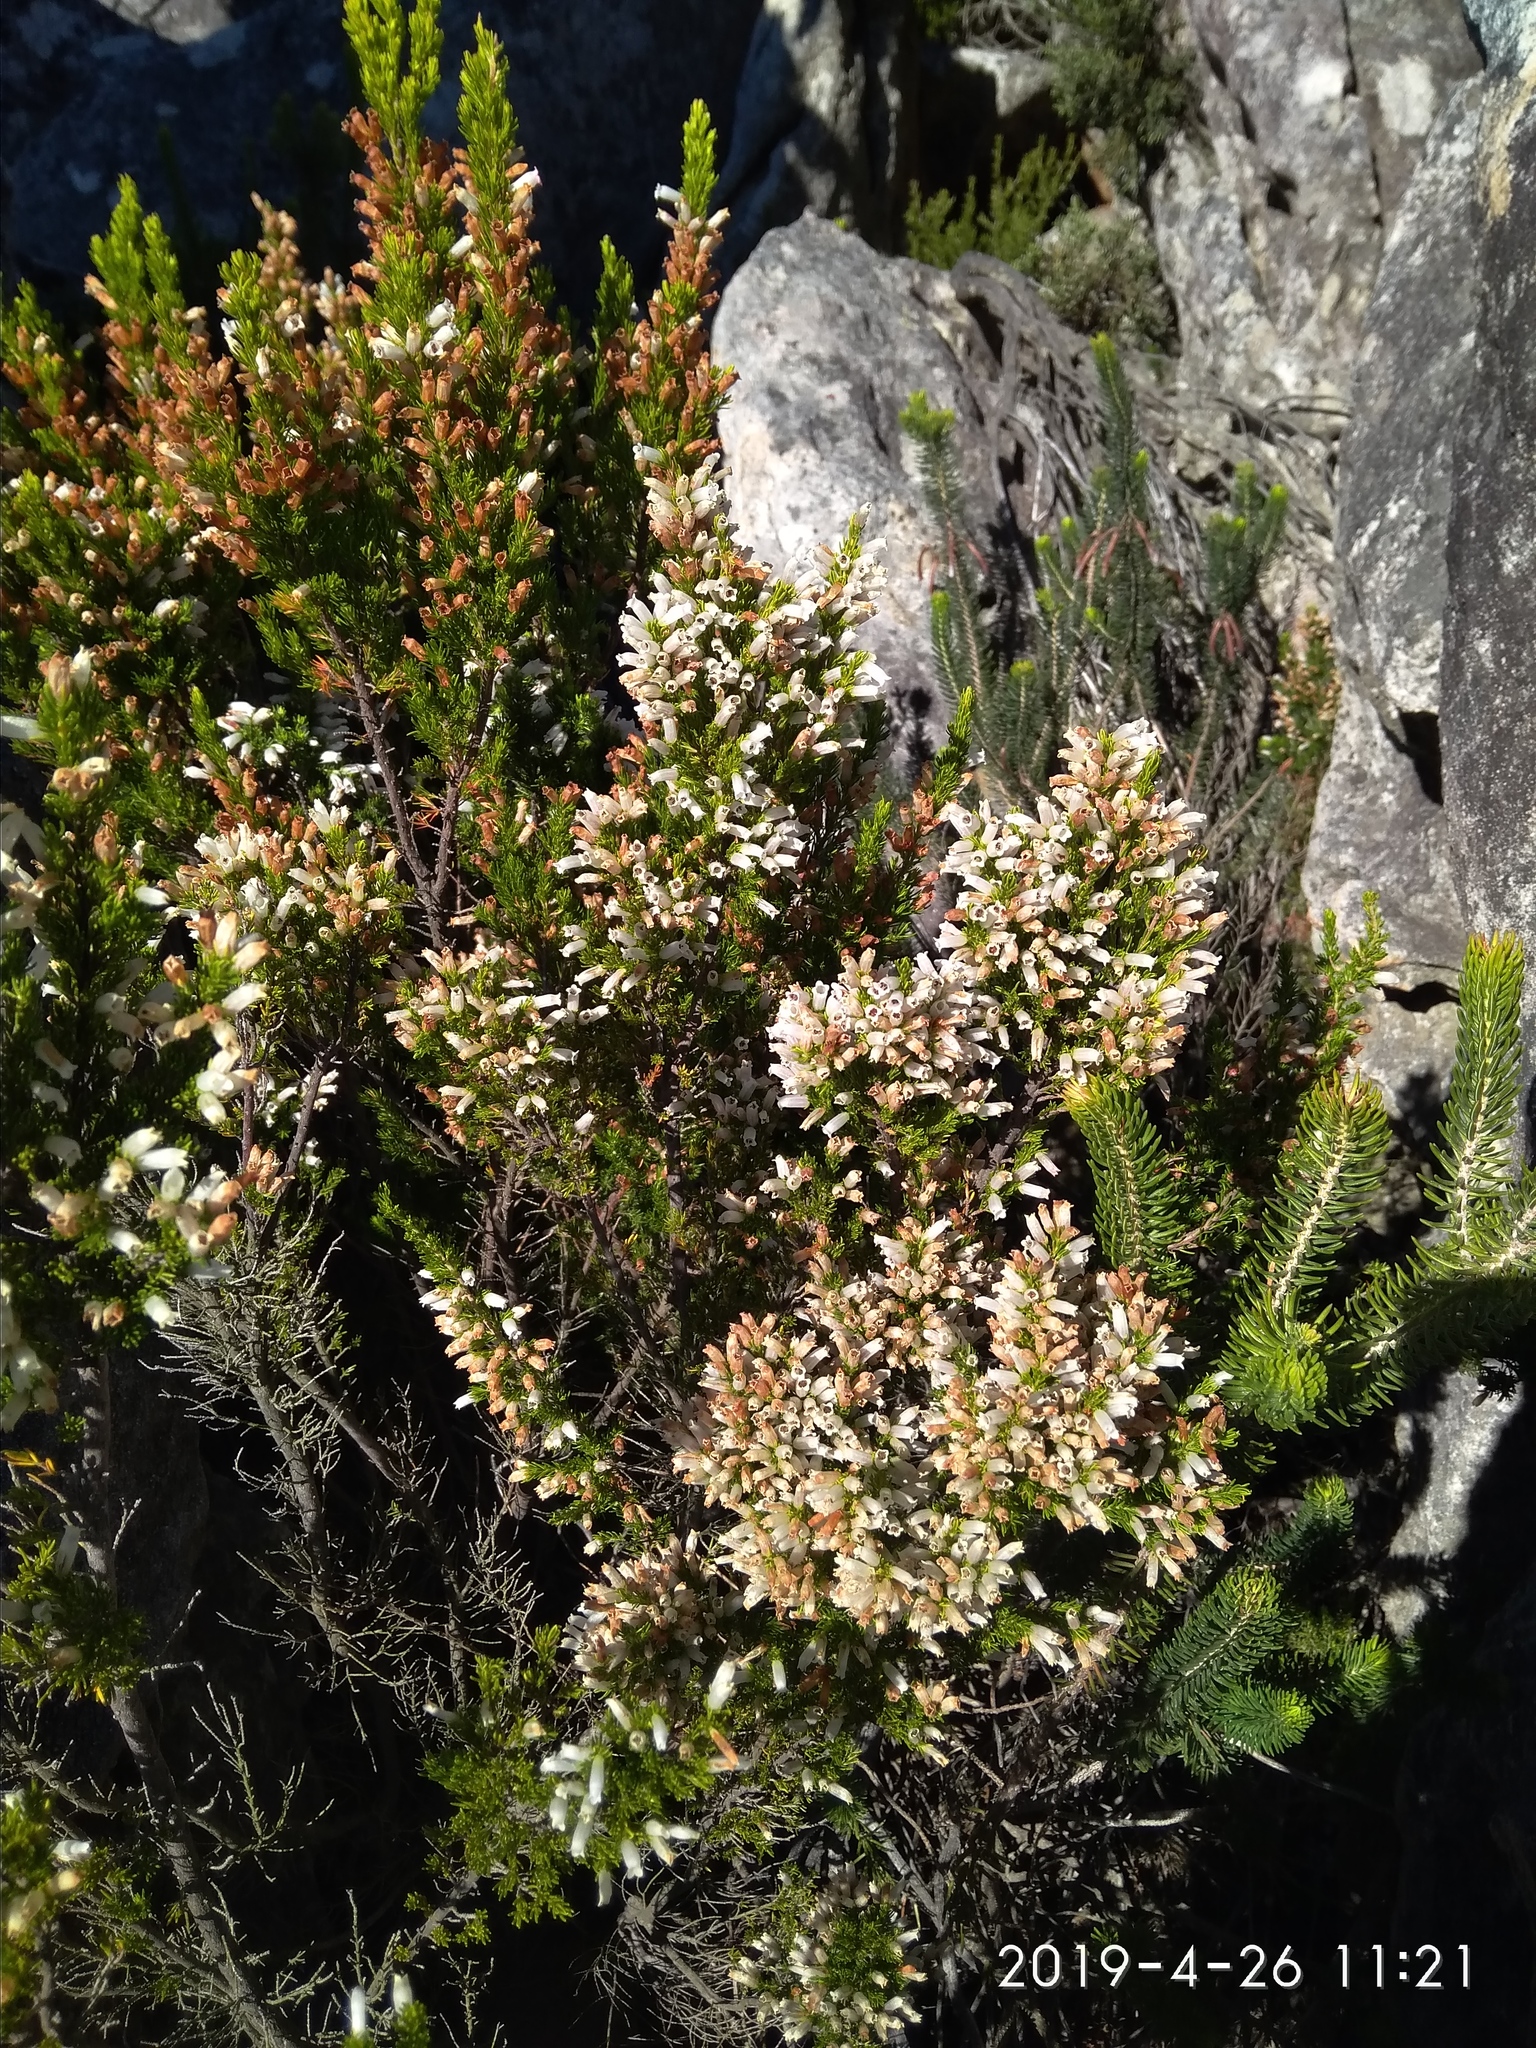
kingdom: Plantae
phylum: Tracheophyta
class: Magnoliopsida
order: Ericales
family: Ericaceae
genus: Erica
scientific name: Erica sitiens
